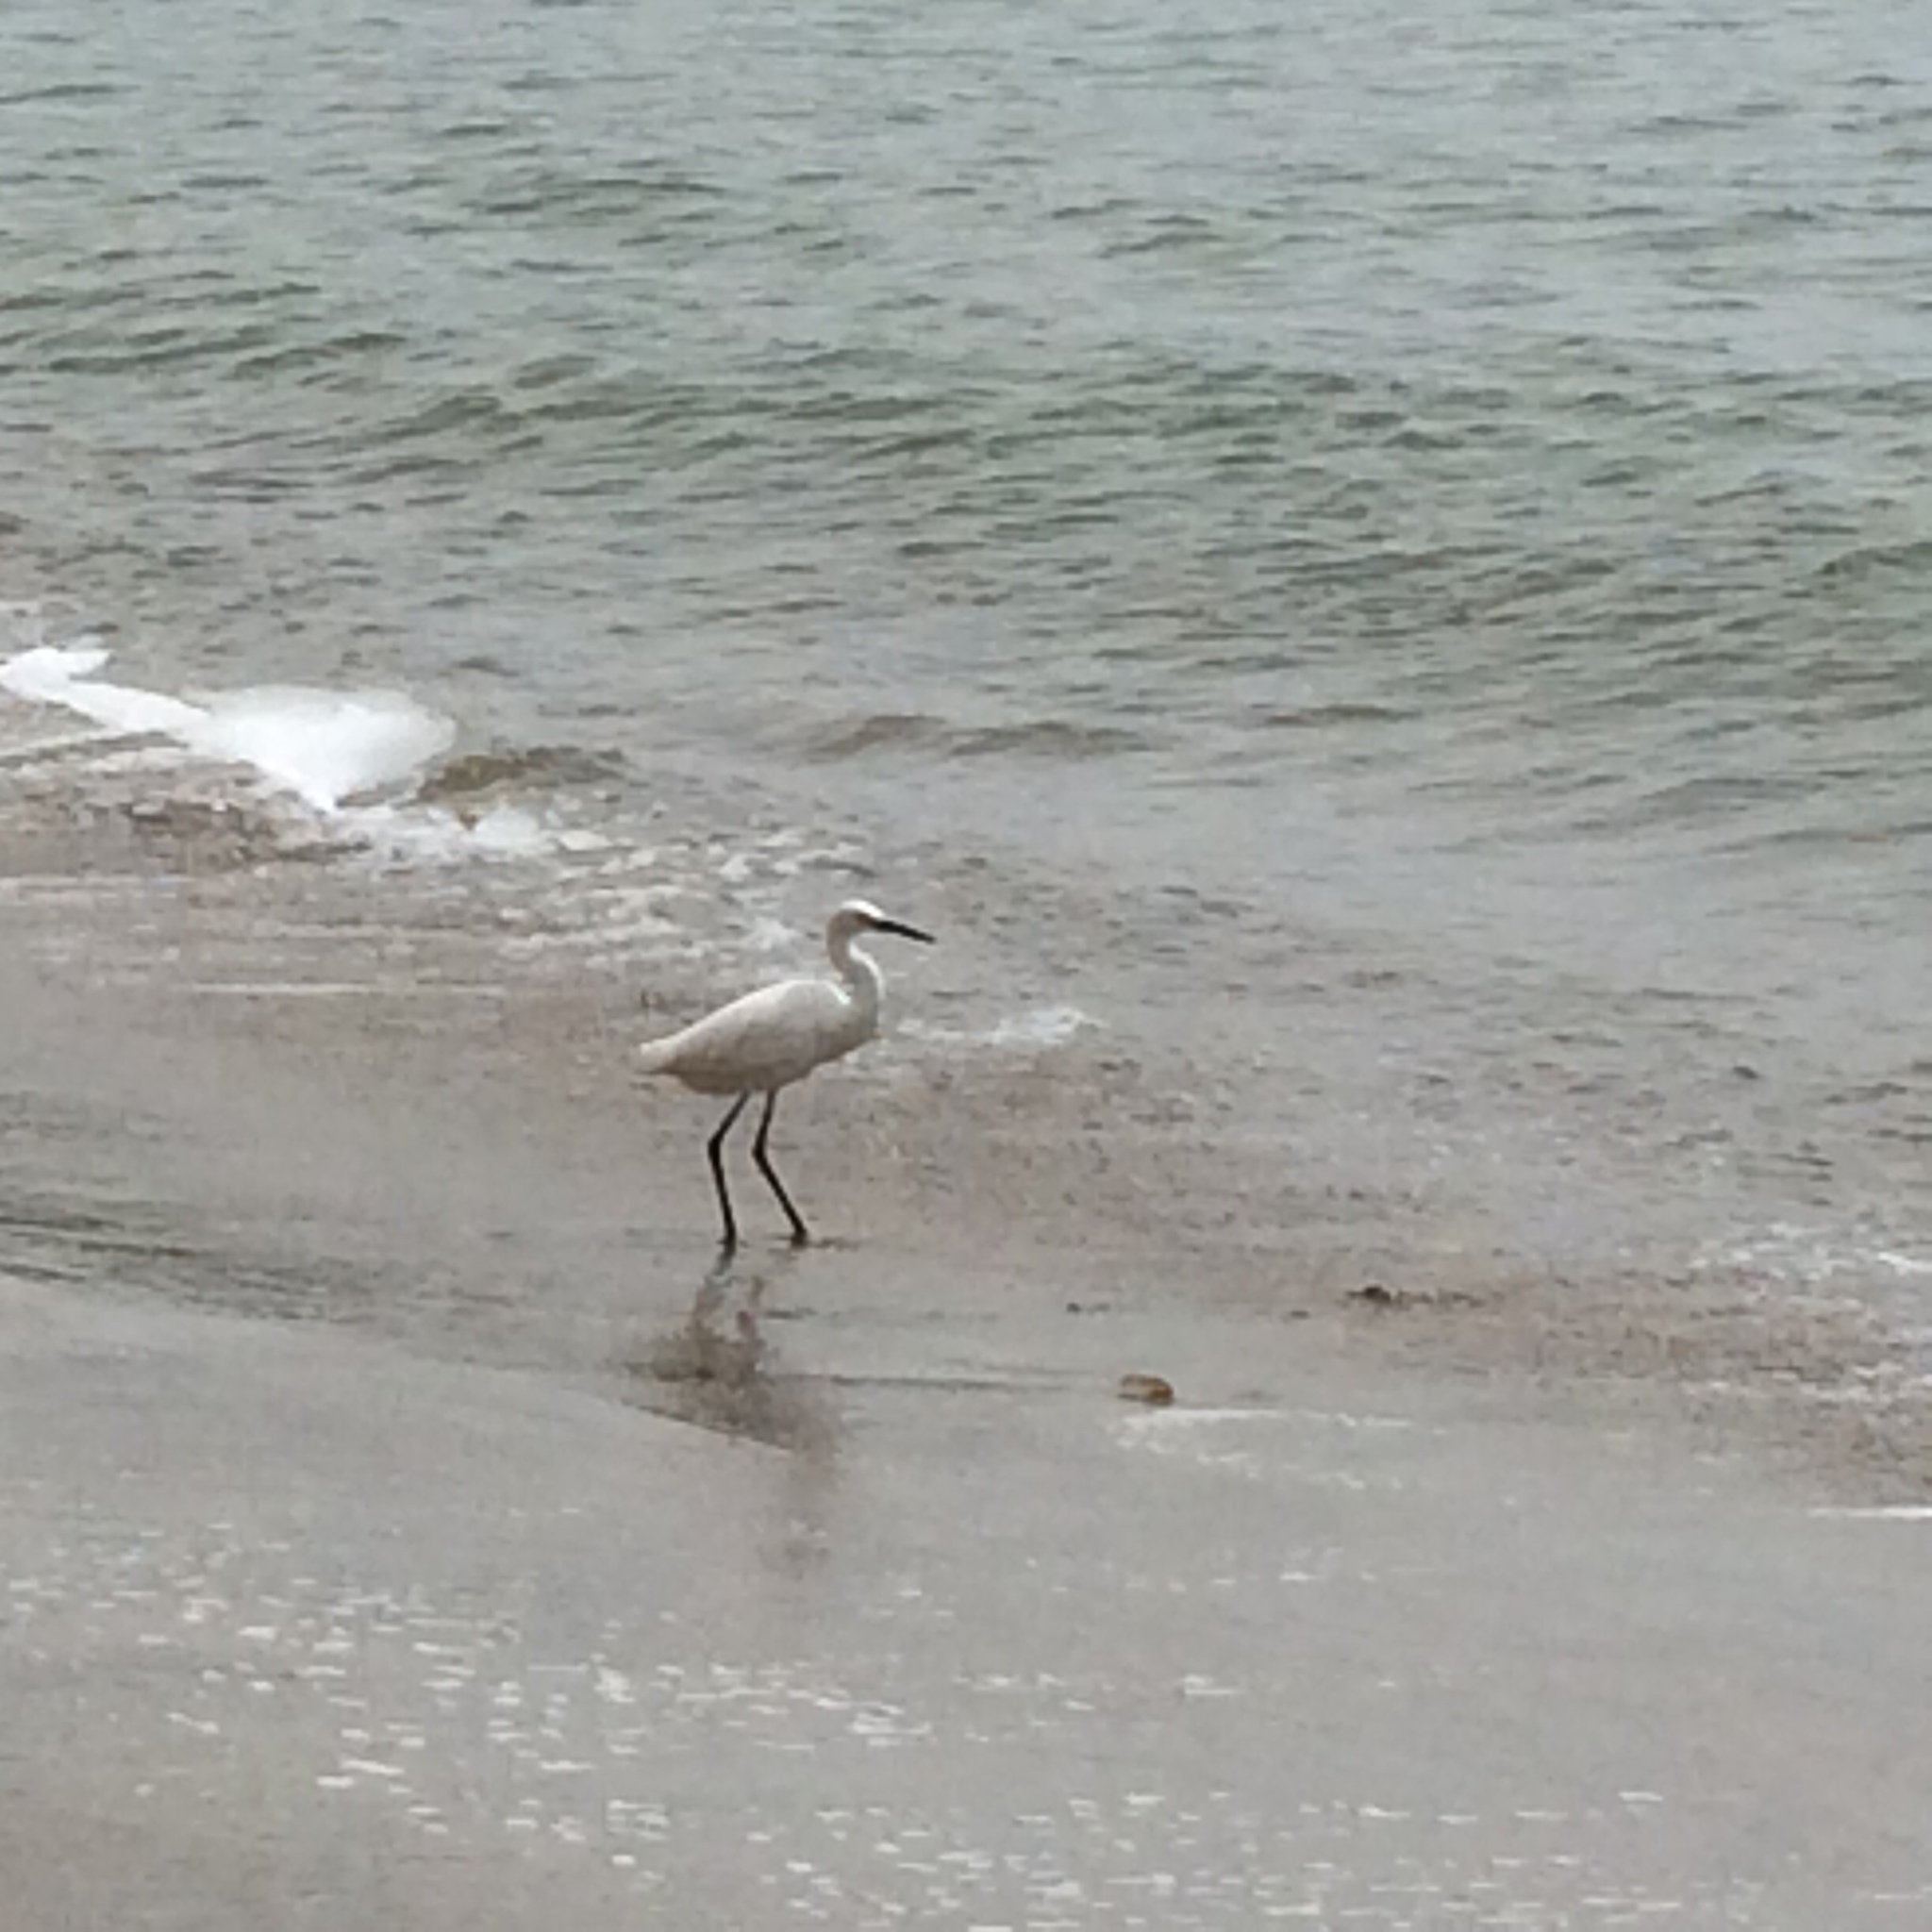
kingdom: Animalia
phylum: Chordata
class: Aves
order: Pelecaniformes
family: Ardeidae
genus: Egretta
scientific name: Egretta thula
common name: Snowy egret
